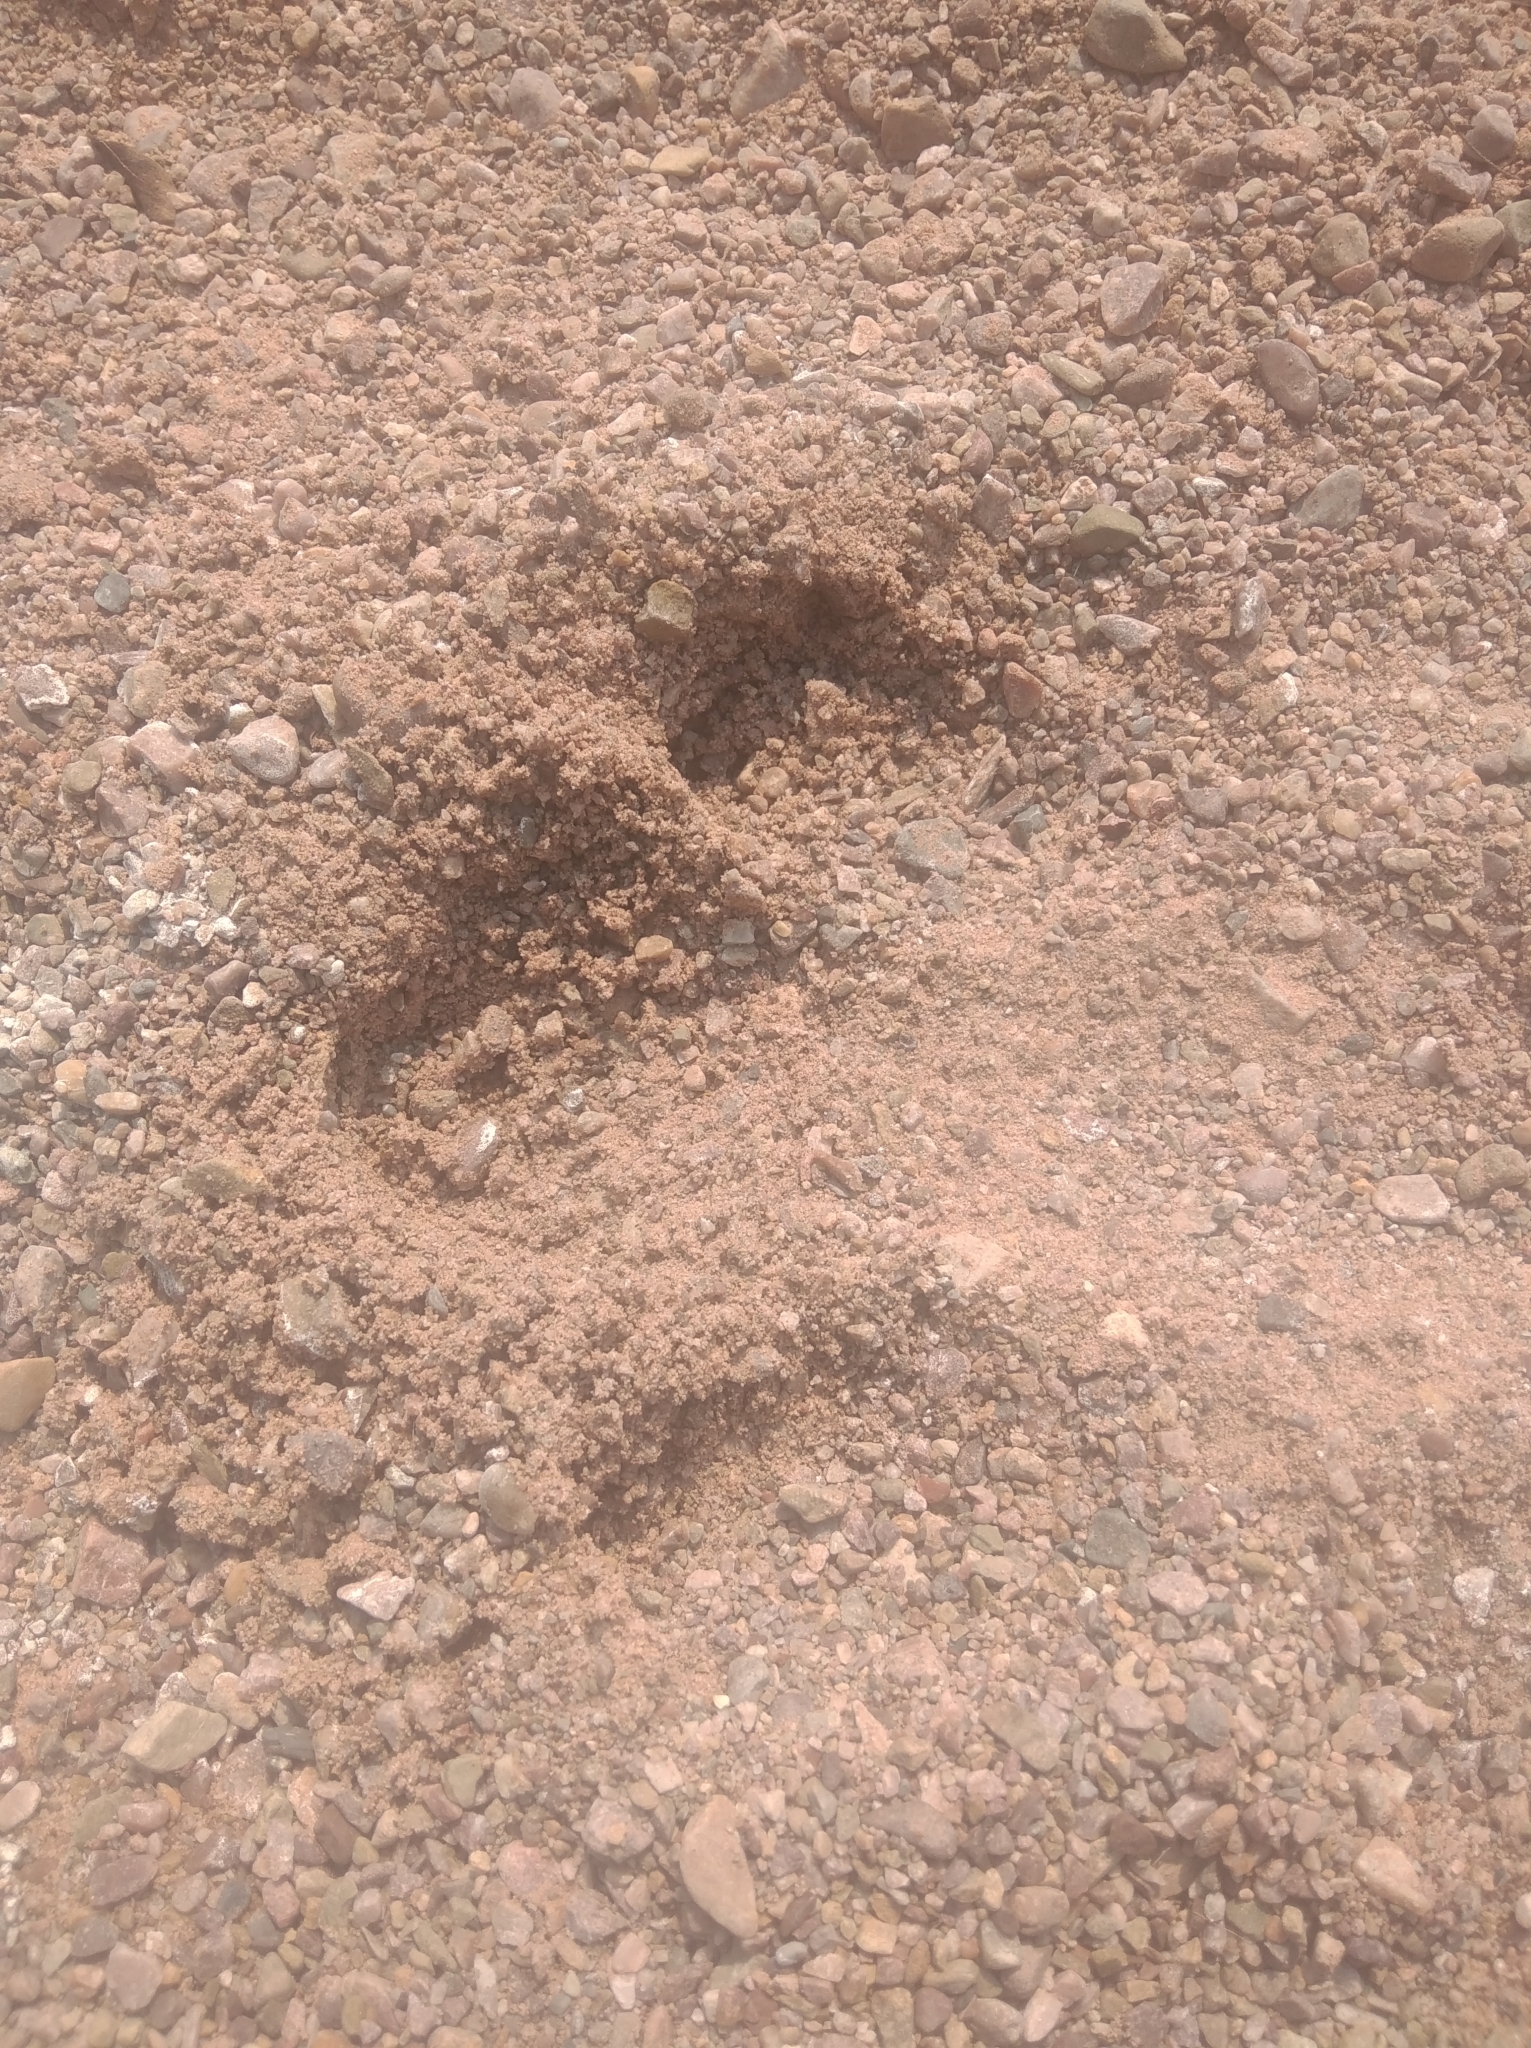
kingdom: Animalia
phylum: Chordata
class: Mammalia
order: Perissodactyla
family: Tapiridae
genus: Tapirus
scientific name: Tapirus terrestris
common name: Brazilian tapir
